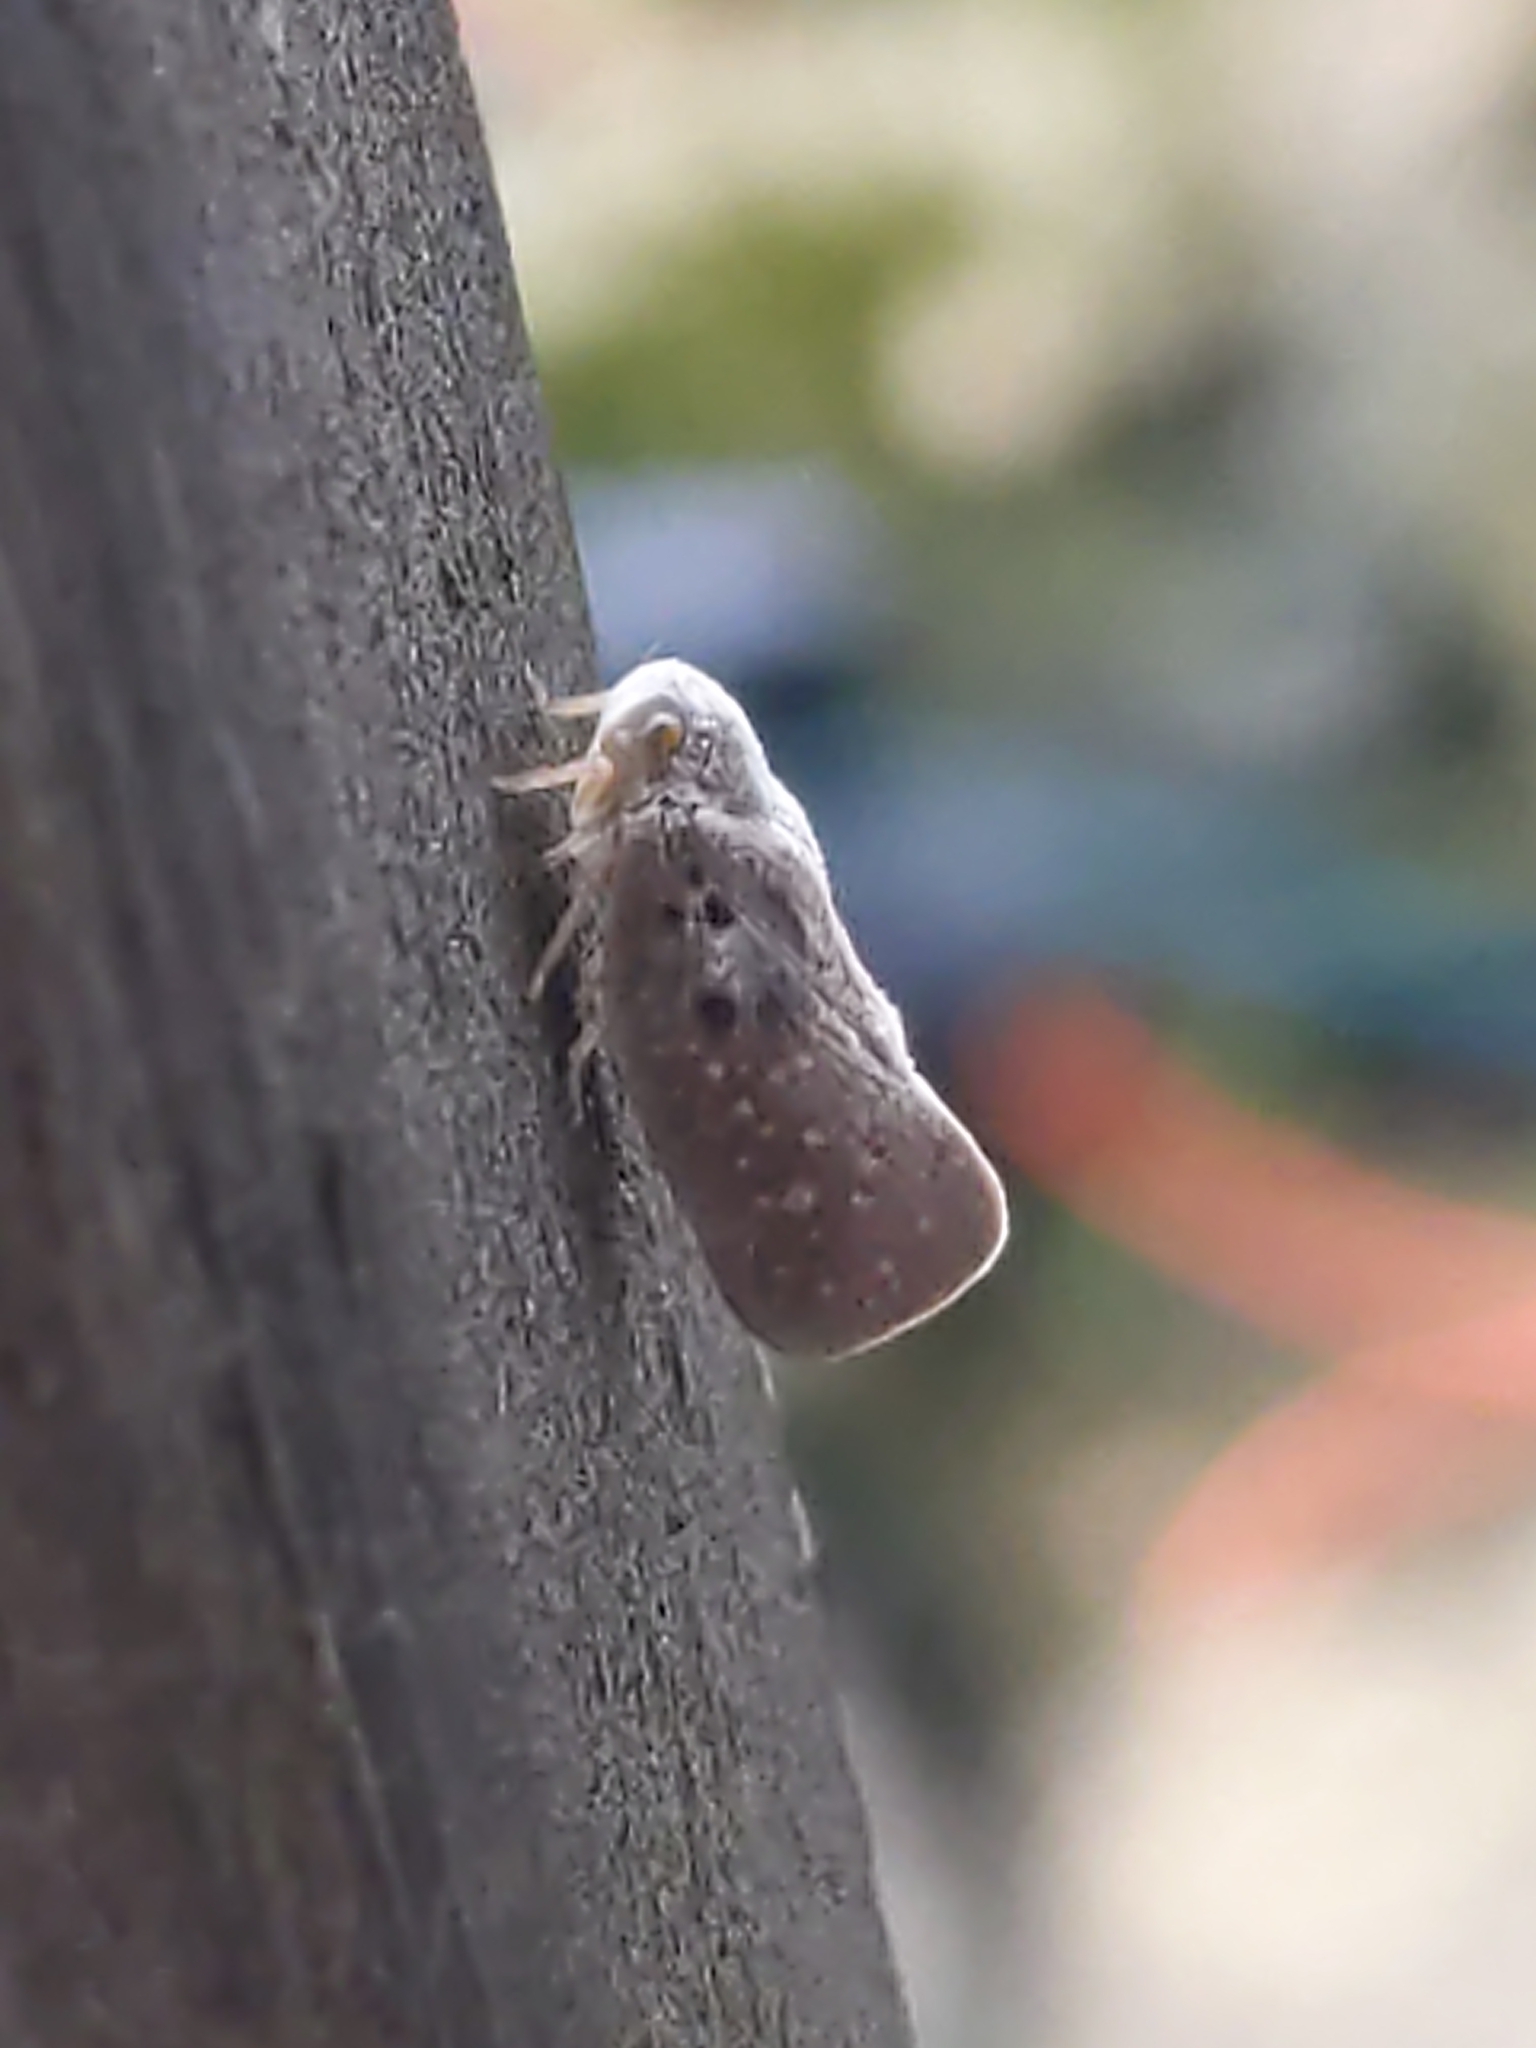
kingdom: Animalia
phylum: Arthropoda
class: Insecta
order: Hemiptera
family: Flatidae
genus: Metcalfa
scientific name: Metcalfa pruinosa
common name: Citrus flatid planthopper
